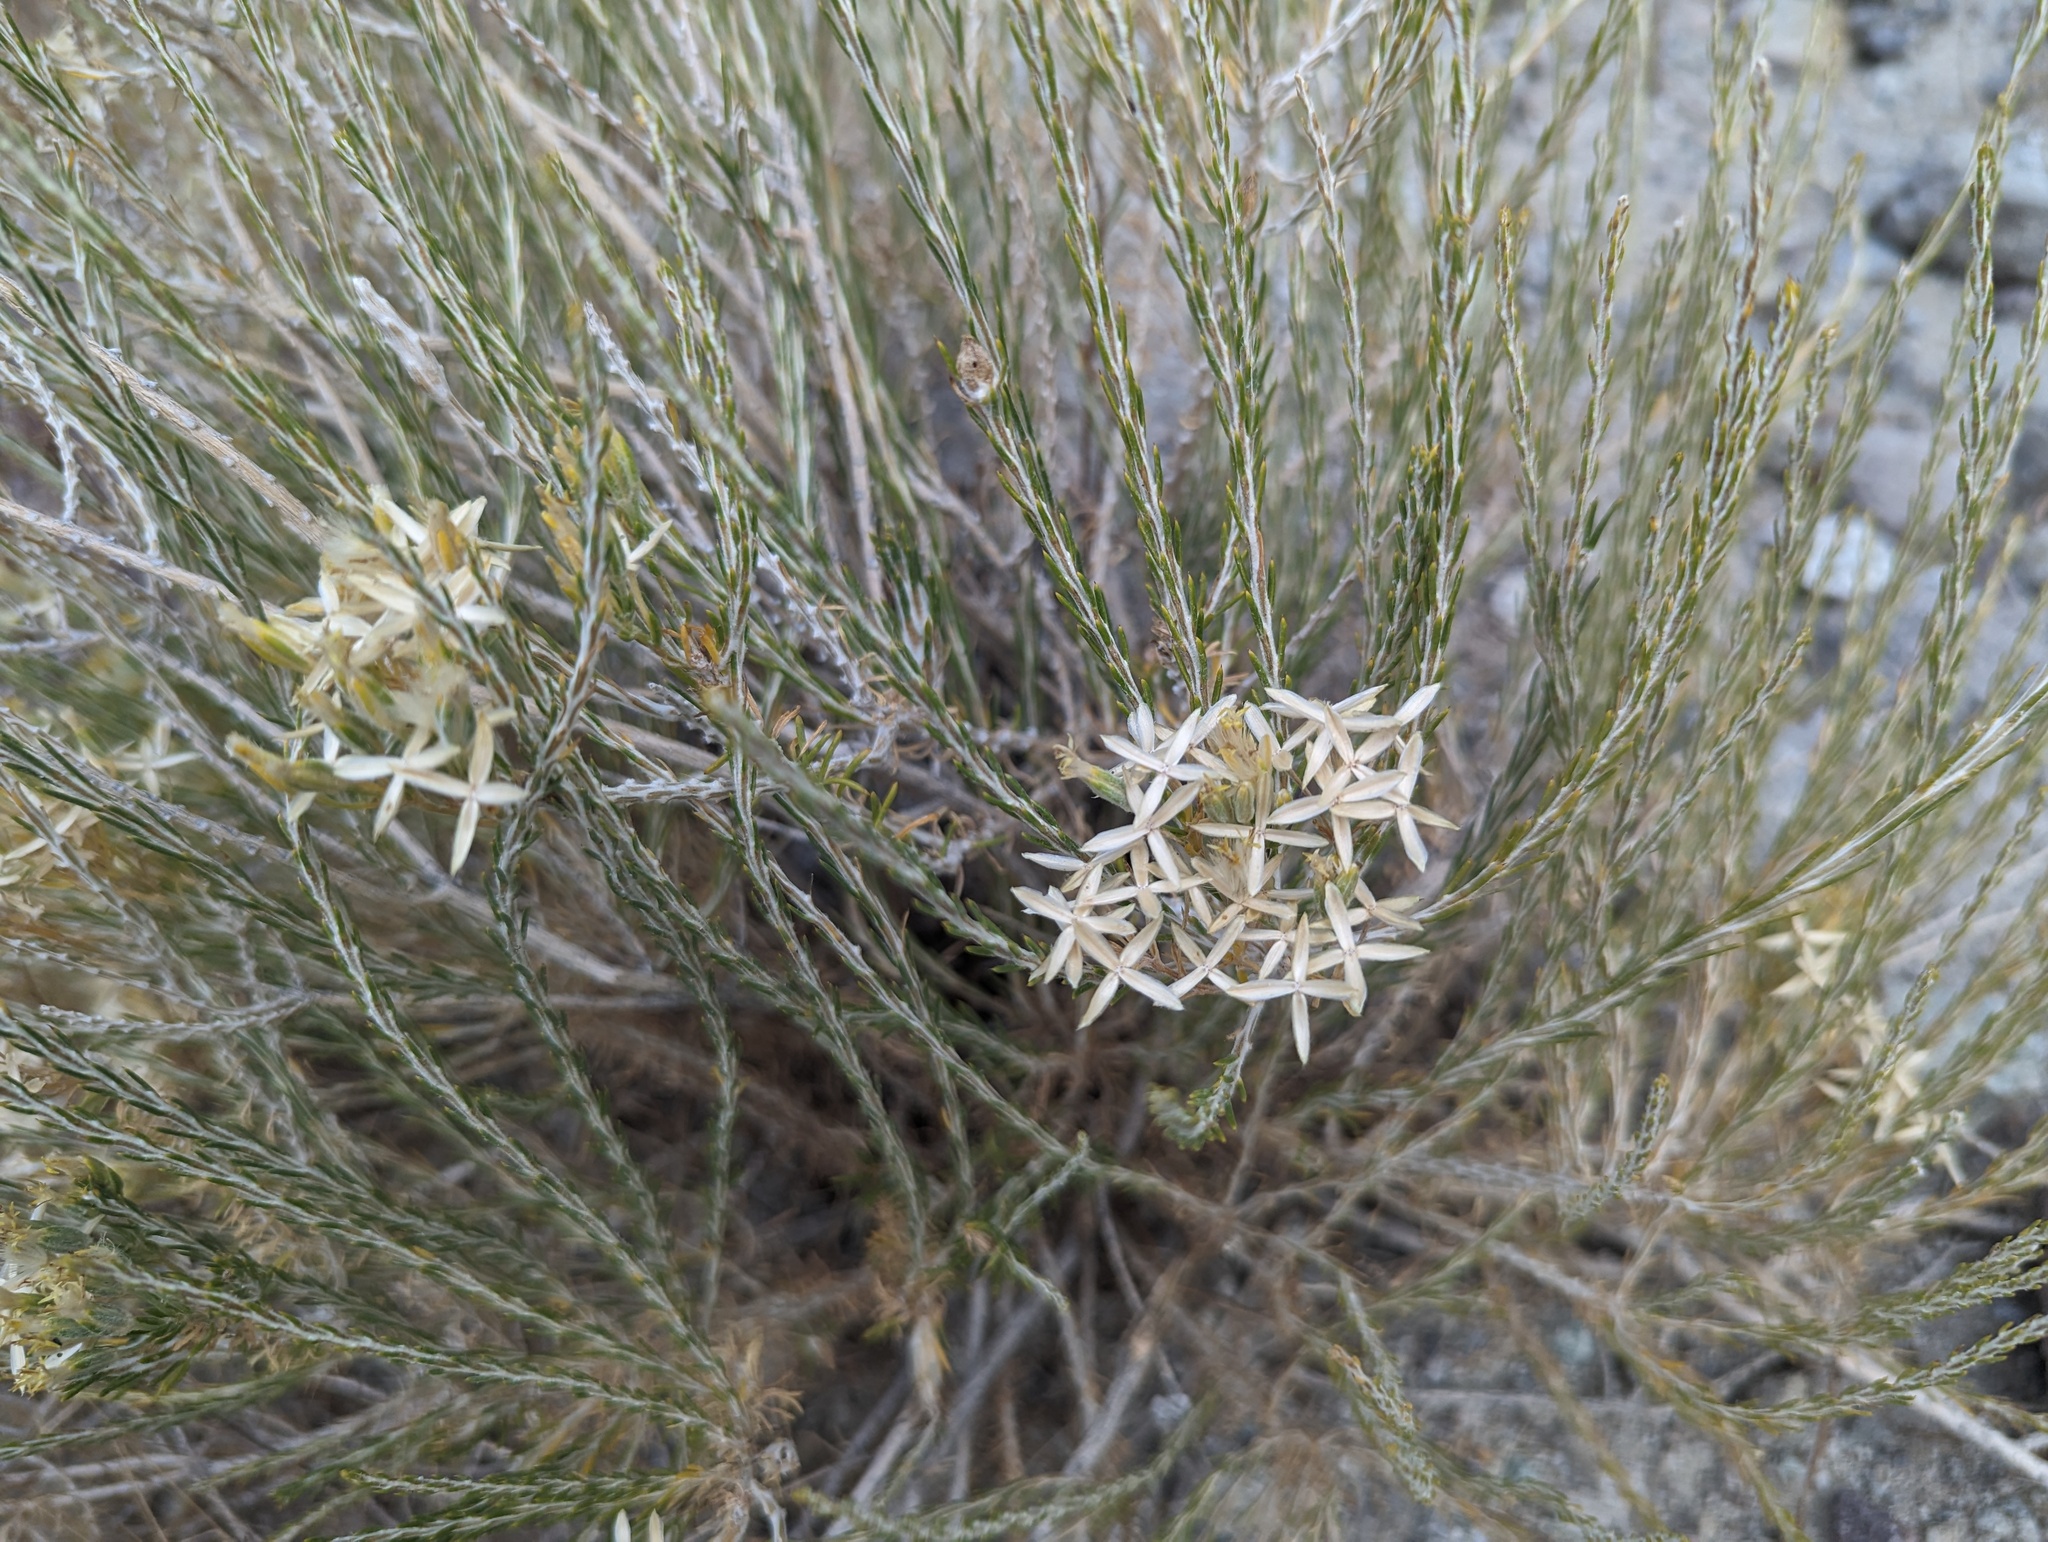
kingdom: Plantae
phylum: Tracheophyta
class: Magnoliopsida
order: Asterales
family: Asteraceae
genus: Tetradymia
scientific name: Tetradymia glabrata
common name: Smooth tetradymia
